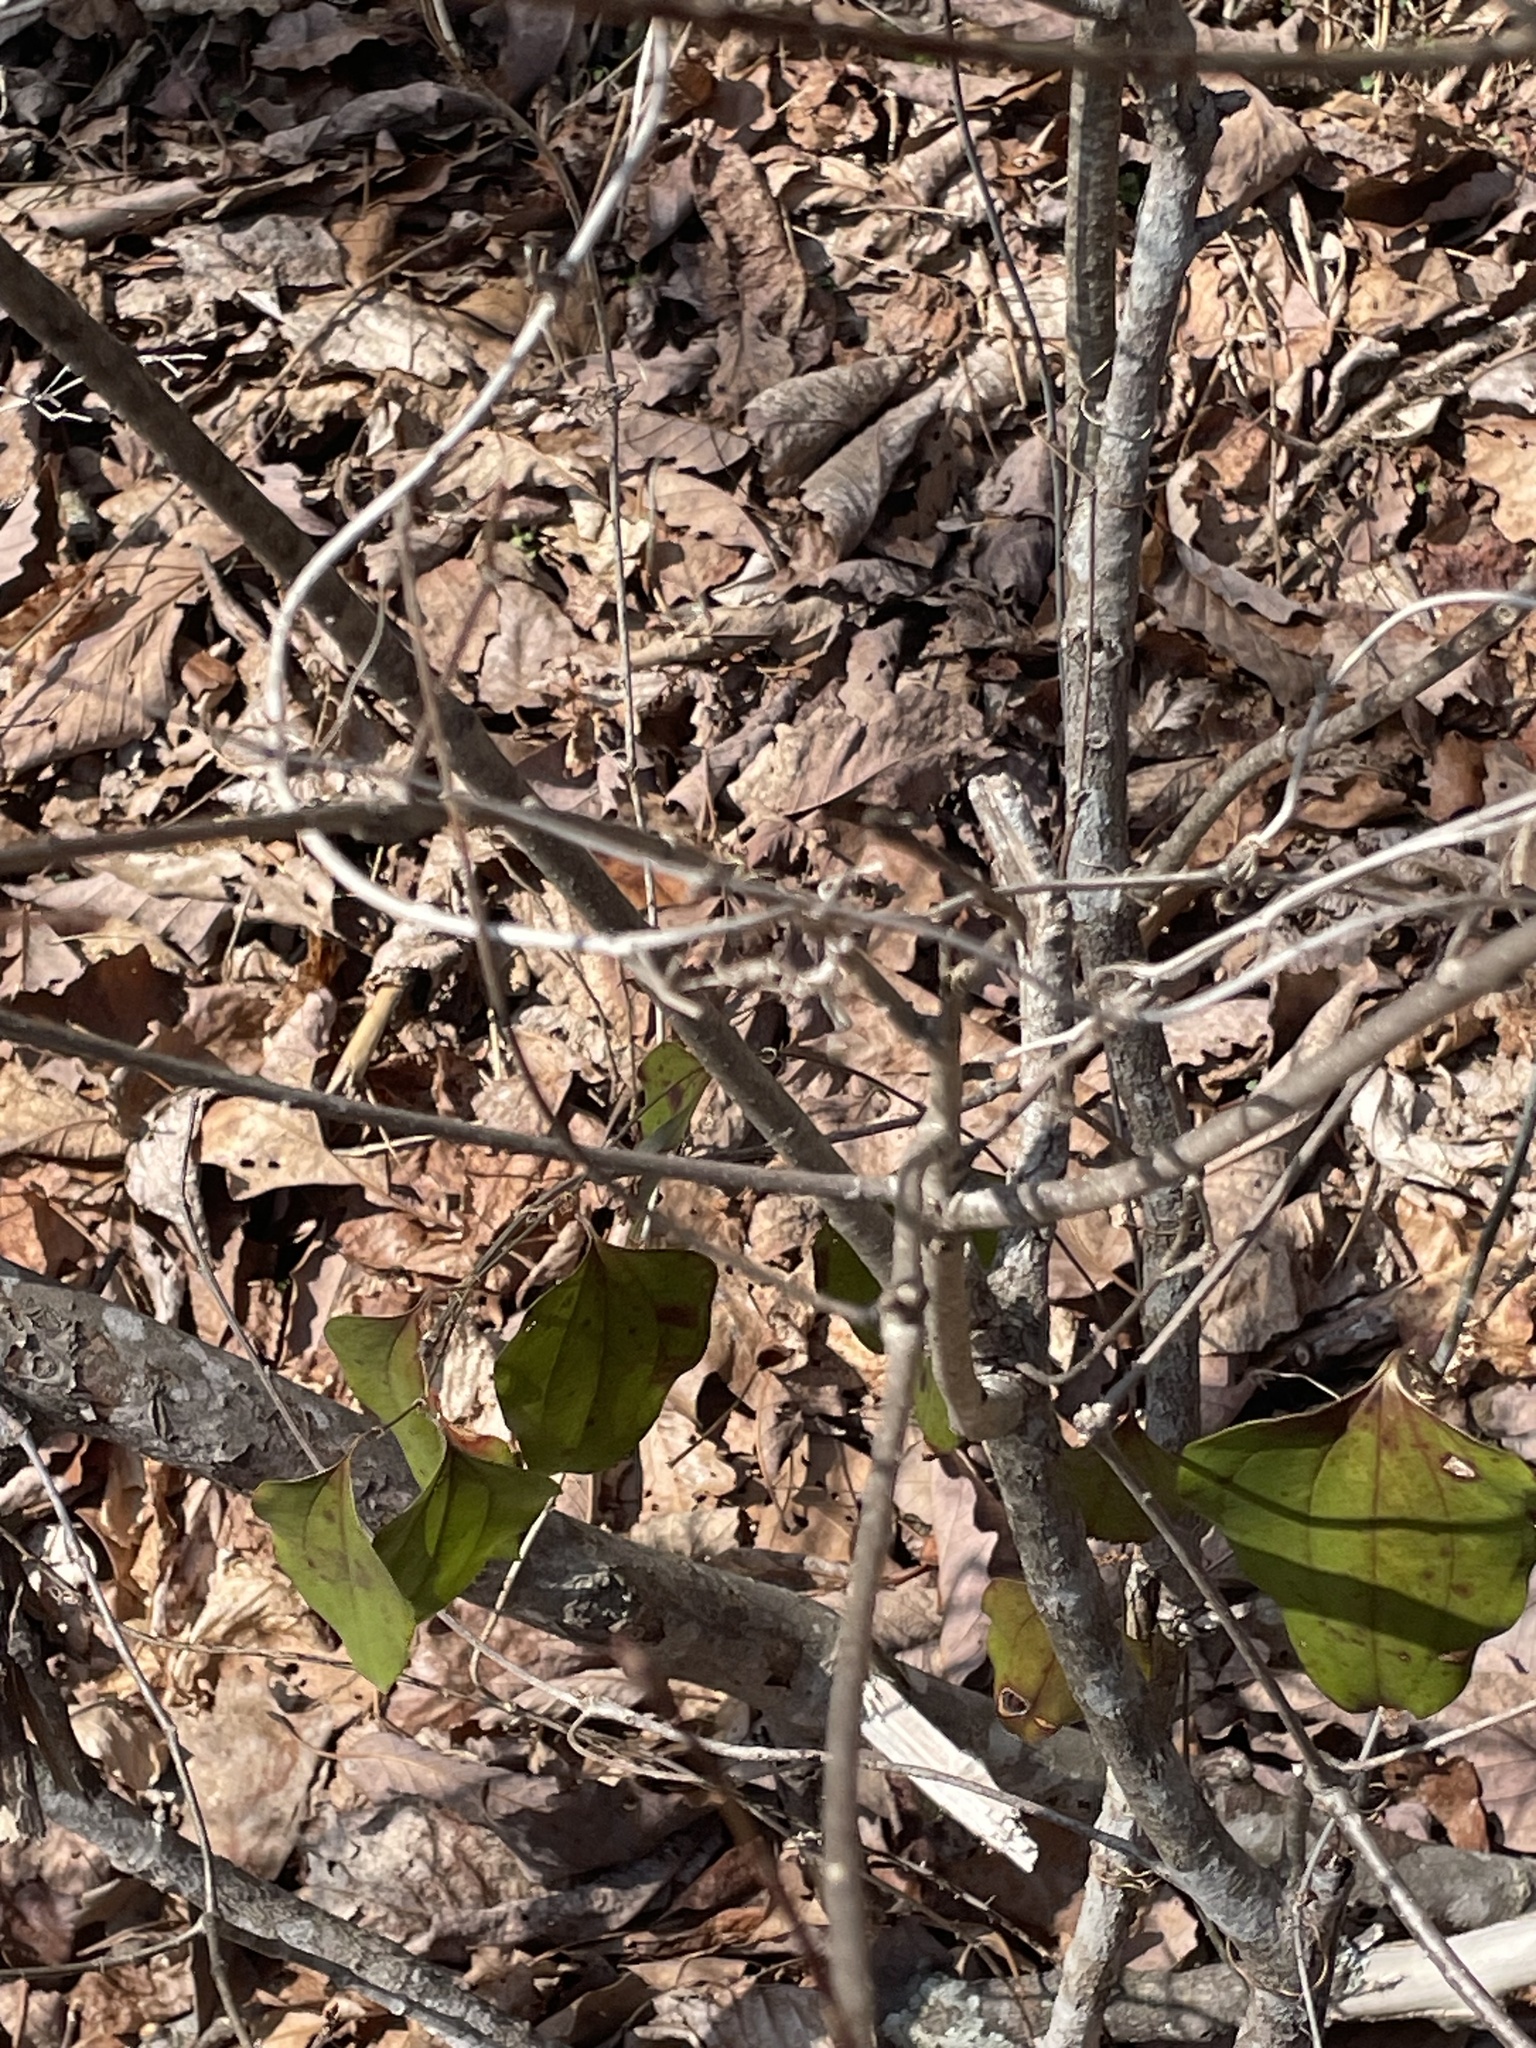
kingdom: Plantae
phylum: Tracheophyta
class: Liliopsida
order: Liliales
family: Smilacaceae
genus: Smilax
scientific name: Smilax glauca
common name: Cat greenbrier
